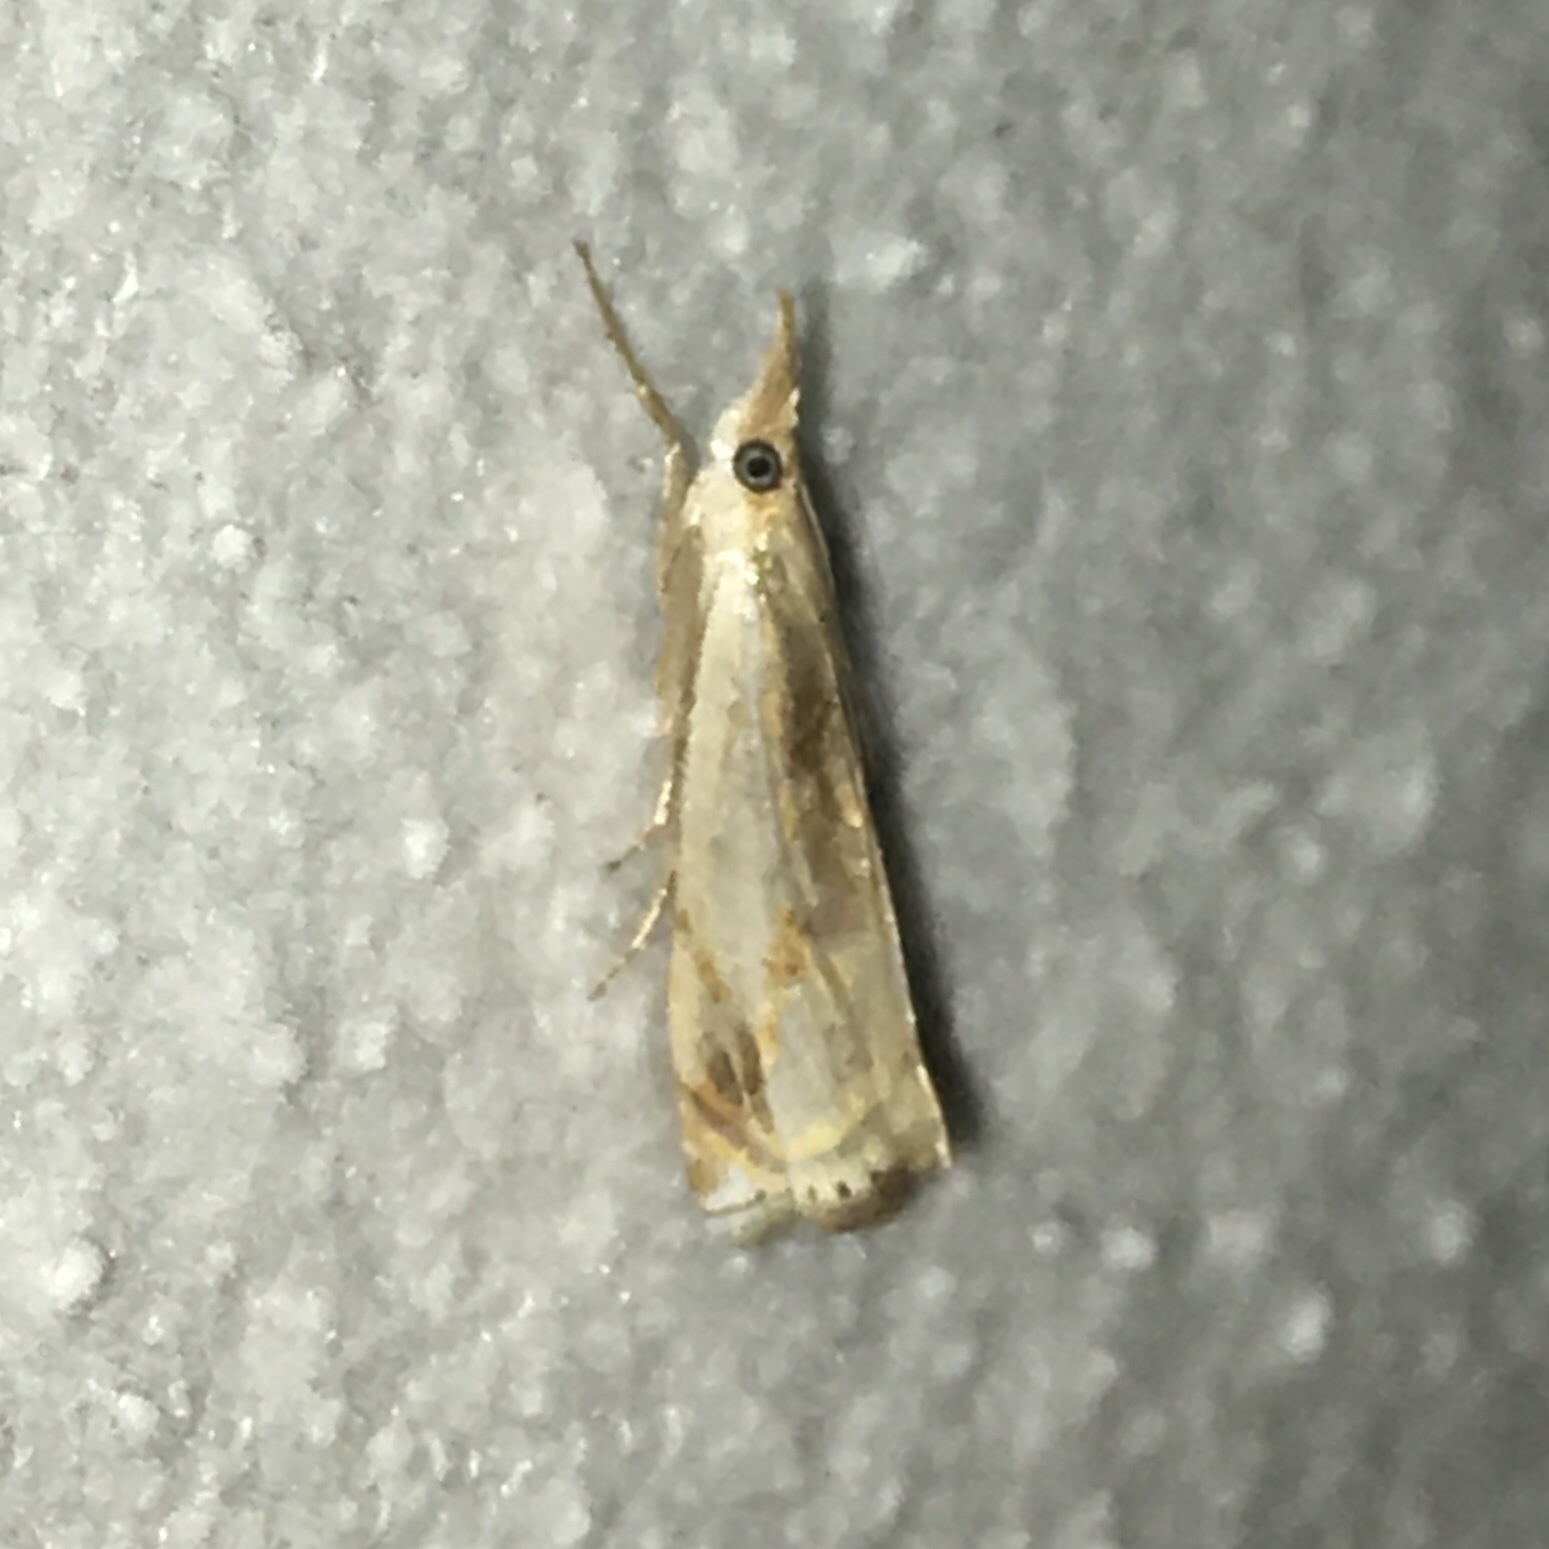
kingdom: Animalia
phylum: Arthropoda
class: Insecta
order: Lepidoptera
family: Crambidae
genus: Crambus
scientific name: Crambus agitatellus
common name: Double-banded grass-veneer
